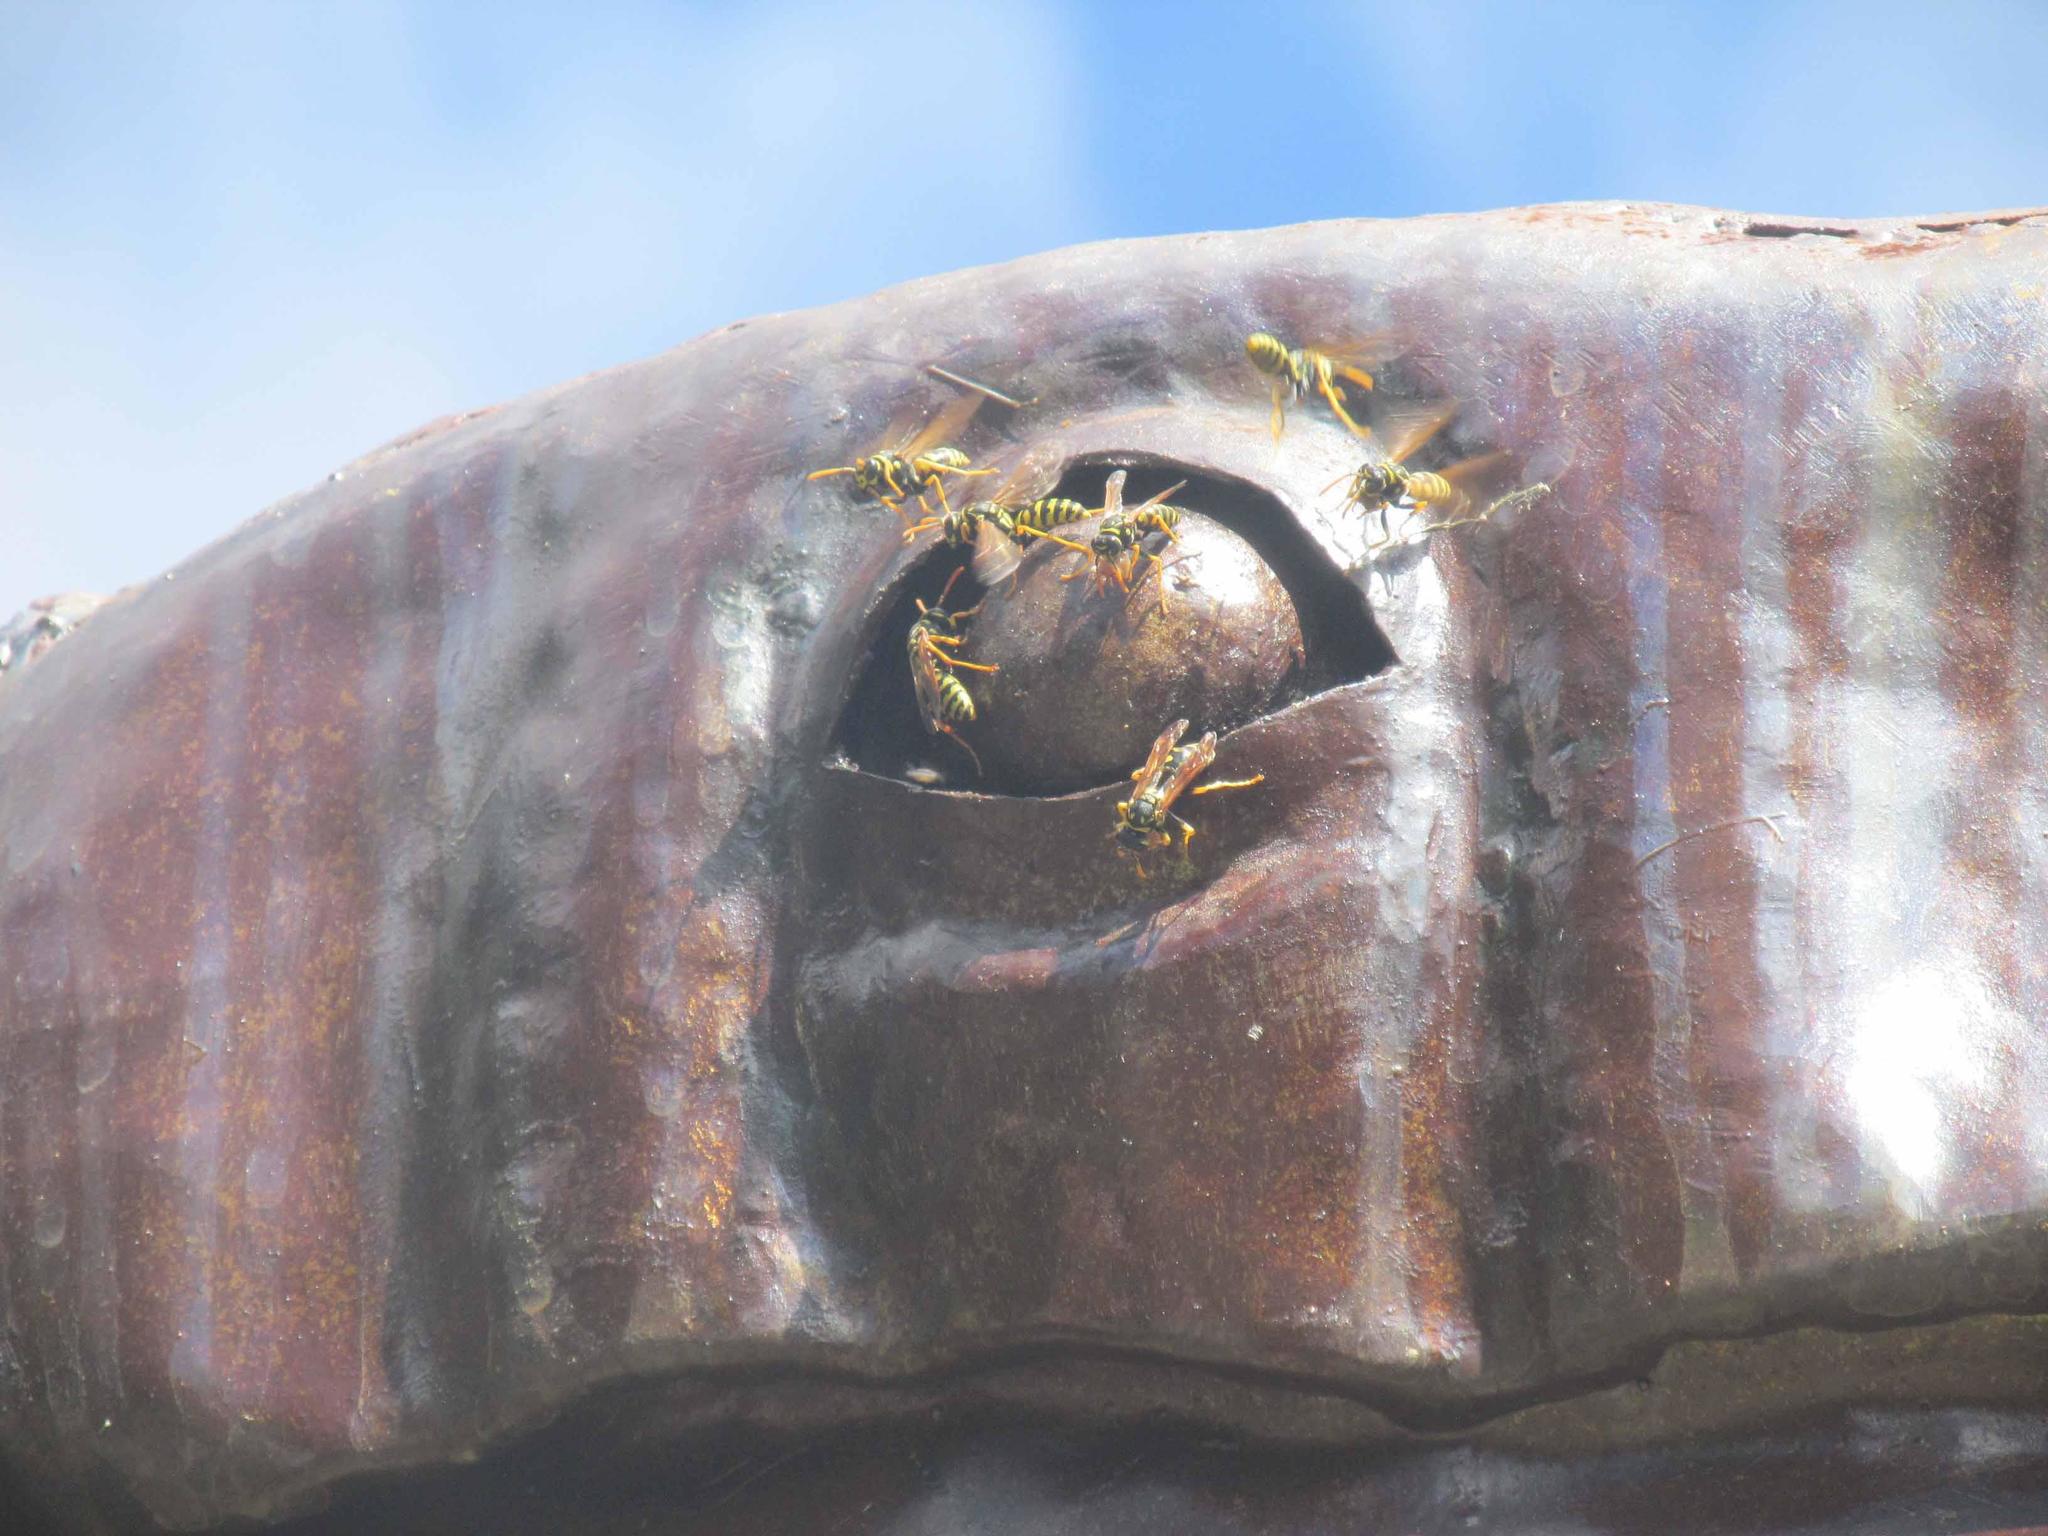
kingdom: Animalia
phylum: Arthropoda
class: Insecta
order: Hymenoptera
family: Eumenidae
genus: Polistes
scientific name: Polistes dominula
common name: Paper wasp
